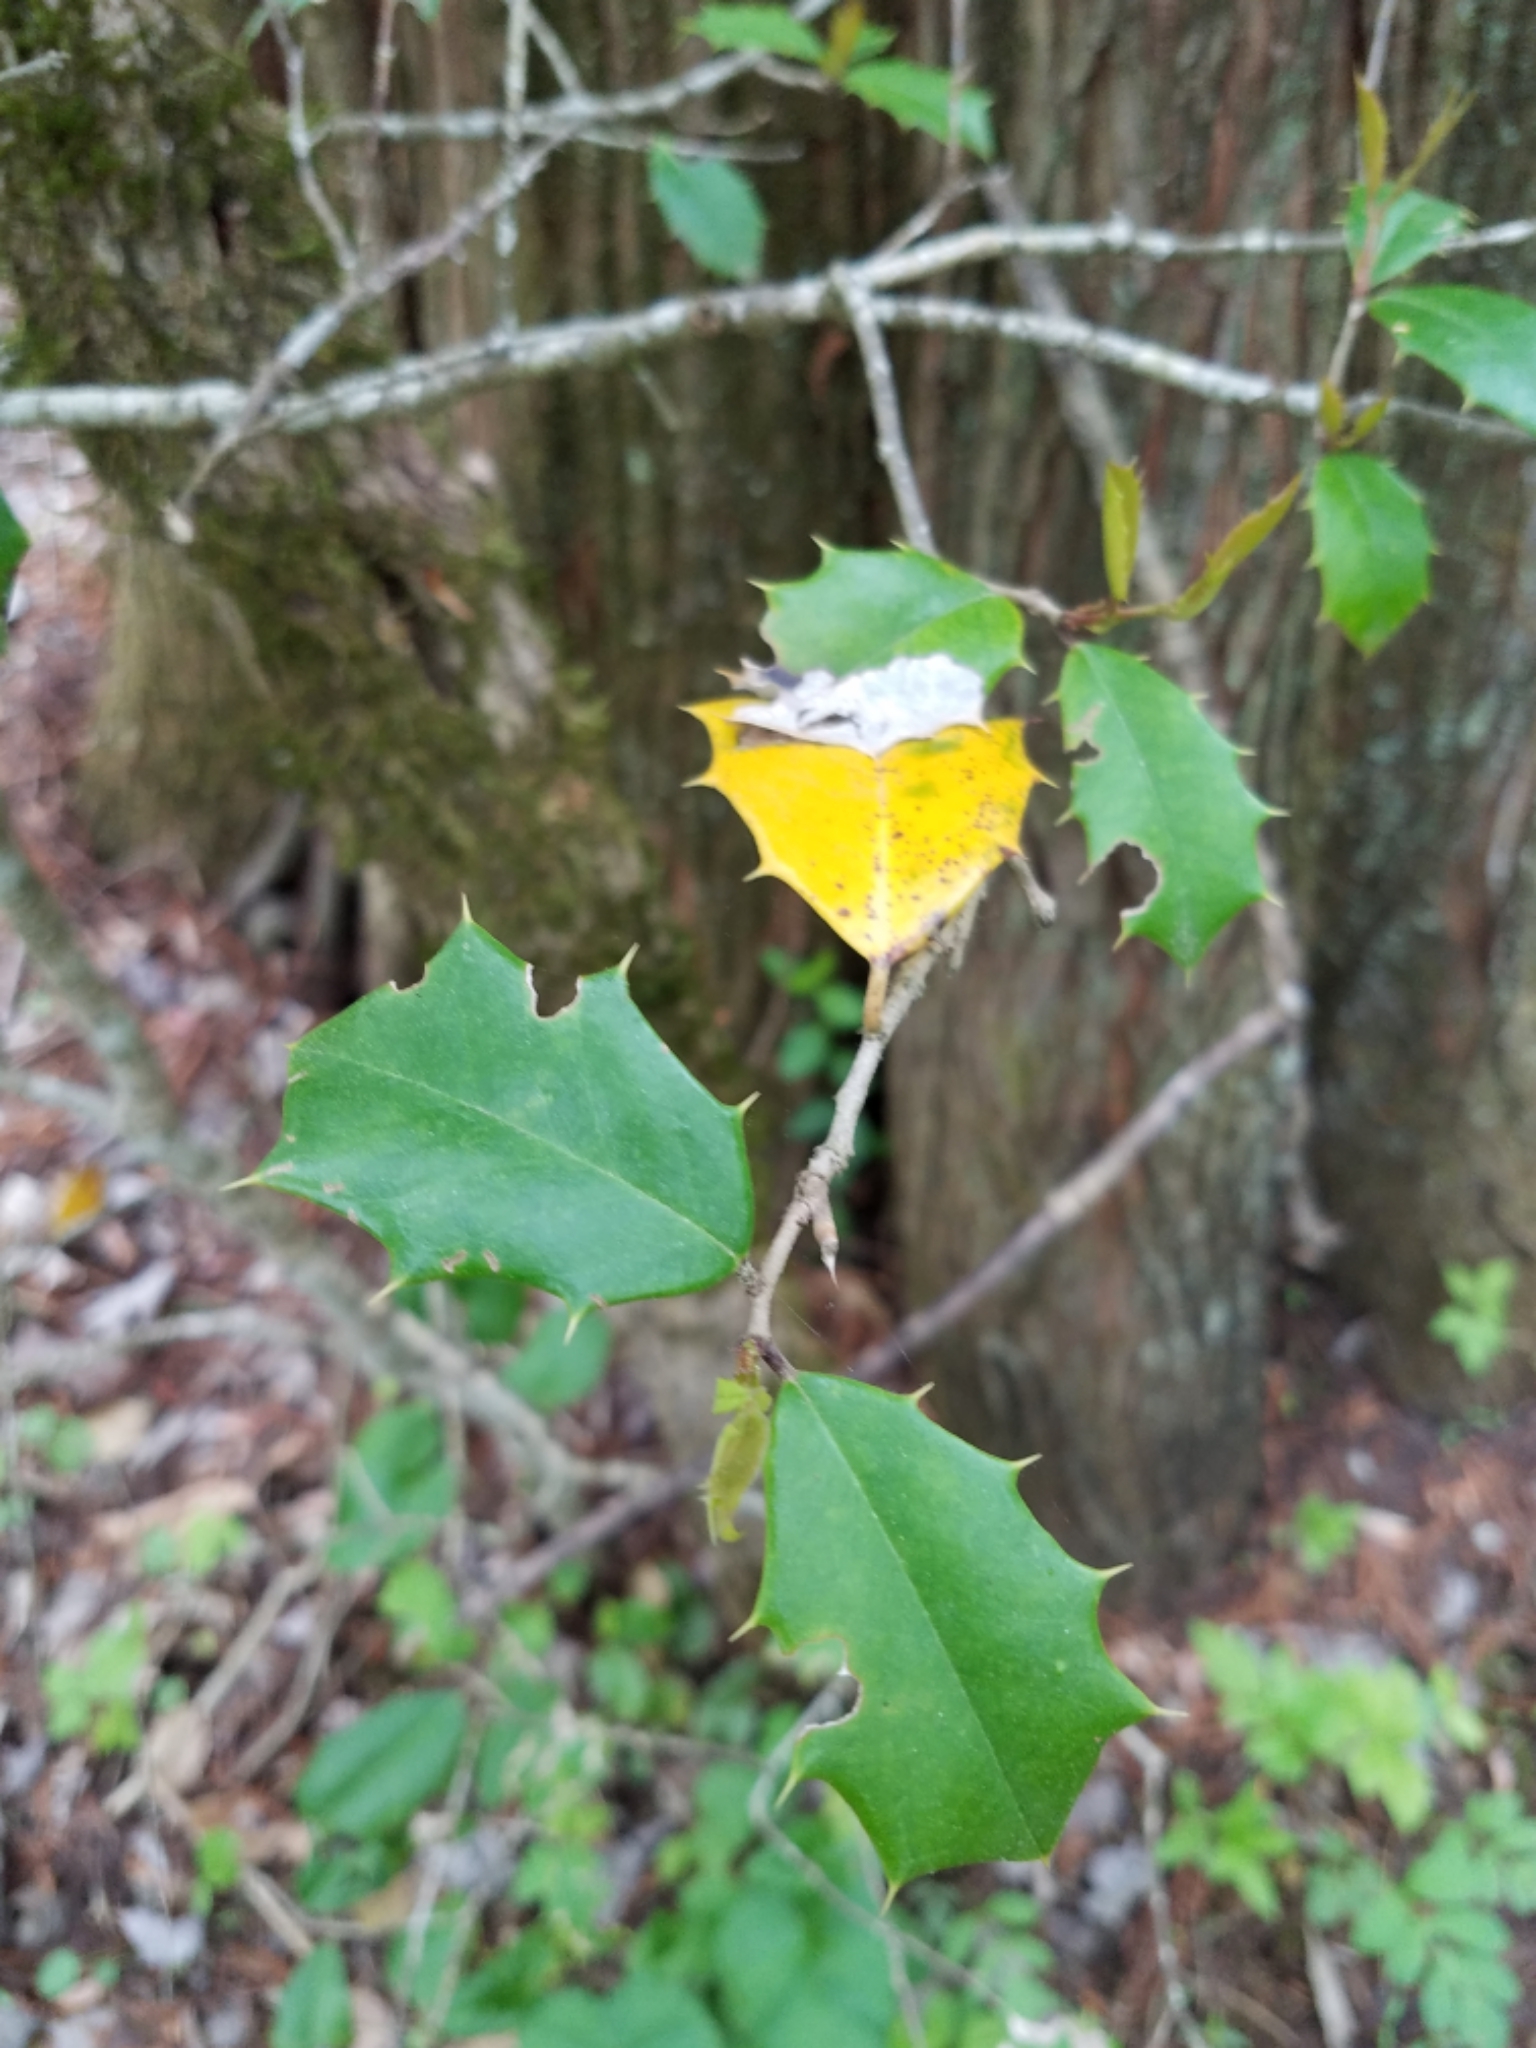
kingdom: Plantae
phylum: Tracheophyta
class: Magnoliopsida
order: Aquifoliales
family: Aquifoliaceae
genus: Ilex
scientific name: Ilex opaca
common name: American holly
